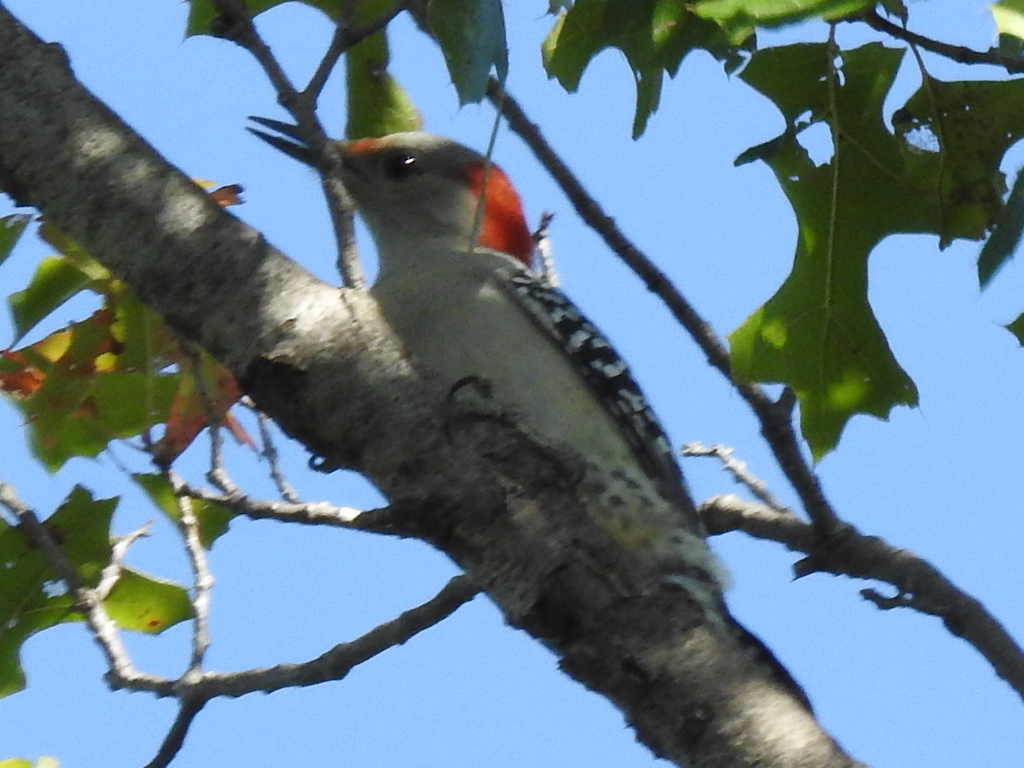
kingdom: Animalia
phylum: Chordata
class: Aves
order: Piciformes
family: Picidae
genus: Melanerpes
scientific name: Melanerpes carolinus
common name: Red-bellied woodpecker
